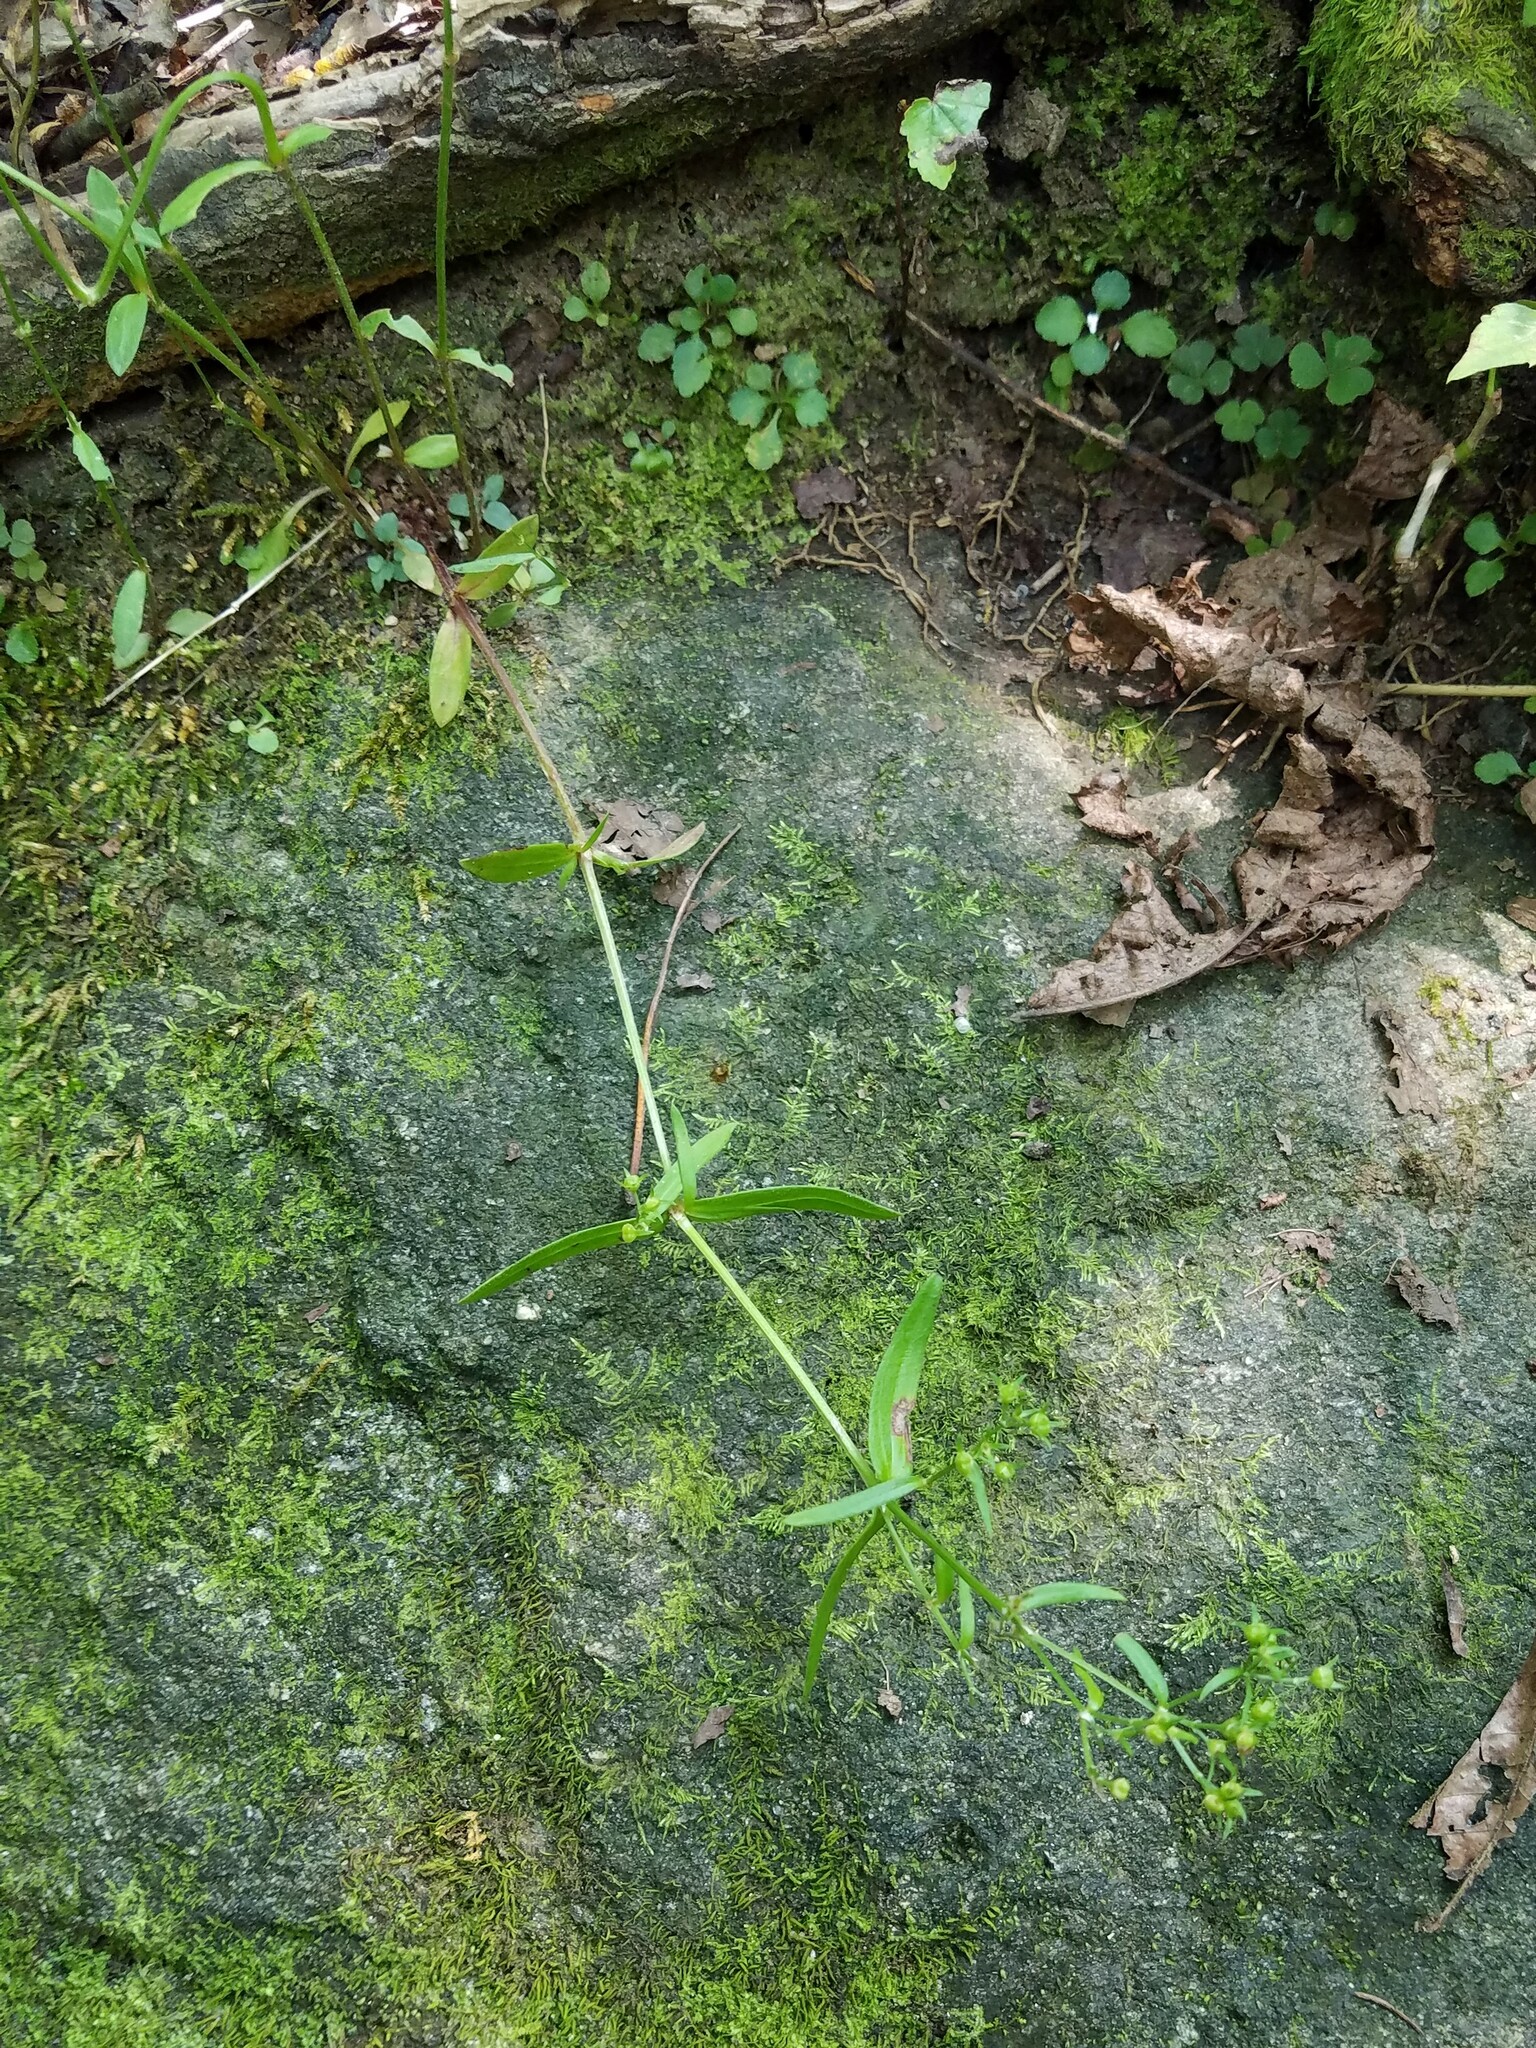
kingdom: Plantae
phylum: Tracheophyta
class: Magnoliopsida
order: Gentianales
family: Rubiaceae
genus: Houstonia
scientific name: Houstonia longifolia
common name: Long-leaved bluets
